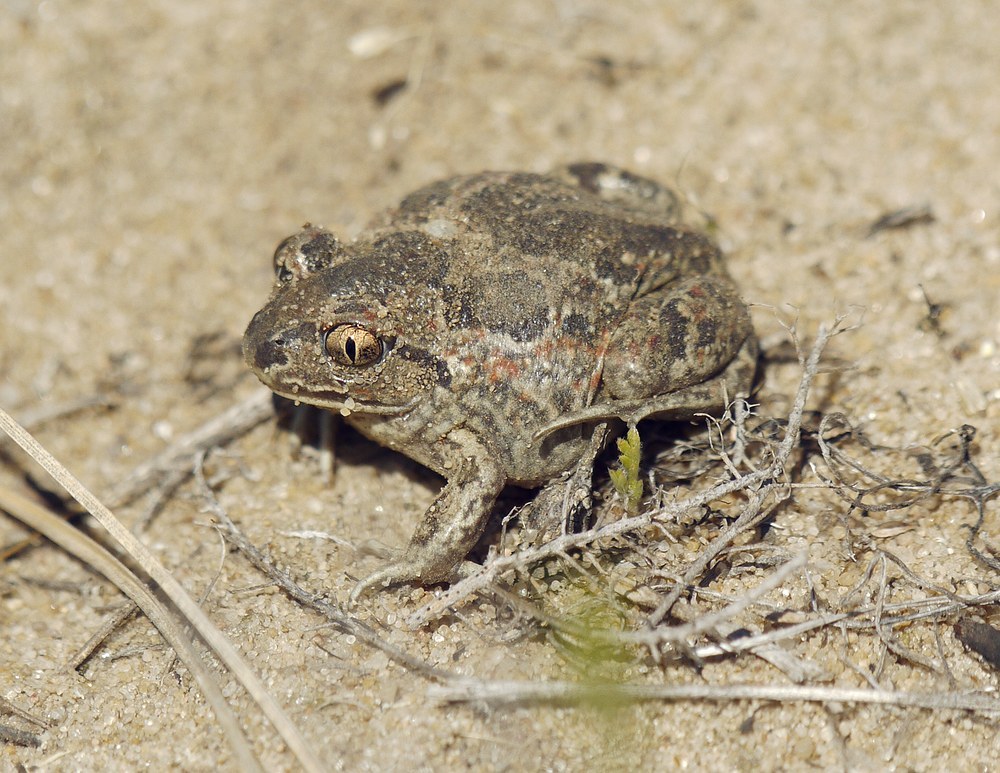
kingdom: Animalia
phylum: Chordata
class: Amphibia
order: Anura
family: Pelobatidae
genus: Pelobates
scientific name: Pelobates fuscus
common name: Common eurasian spadefoot toad
